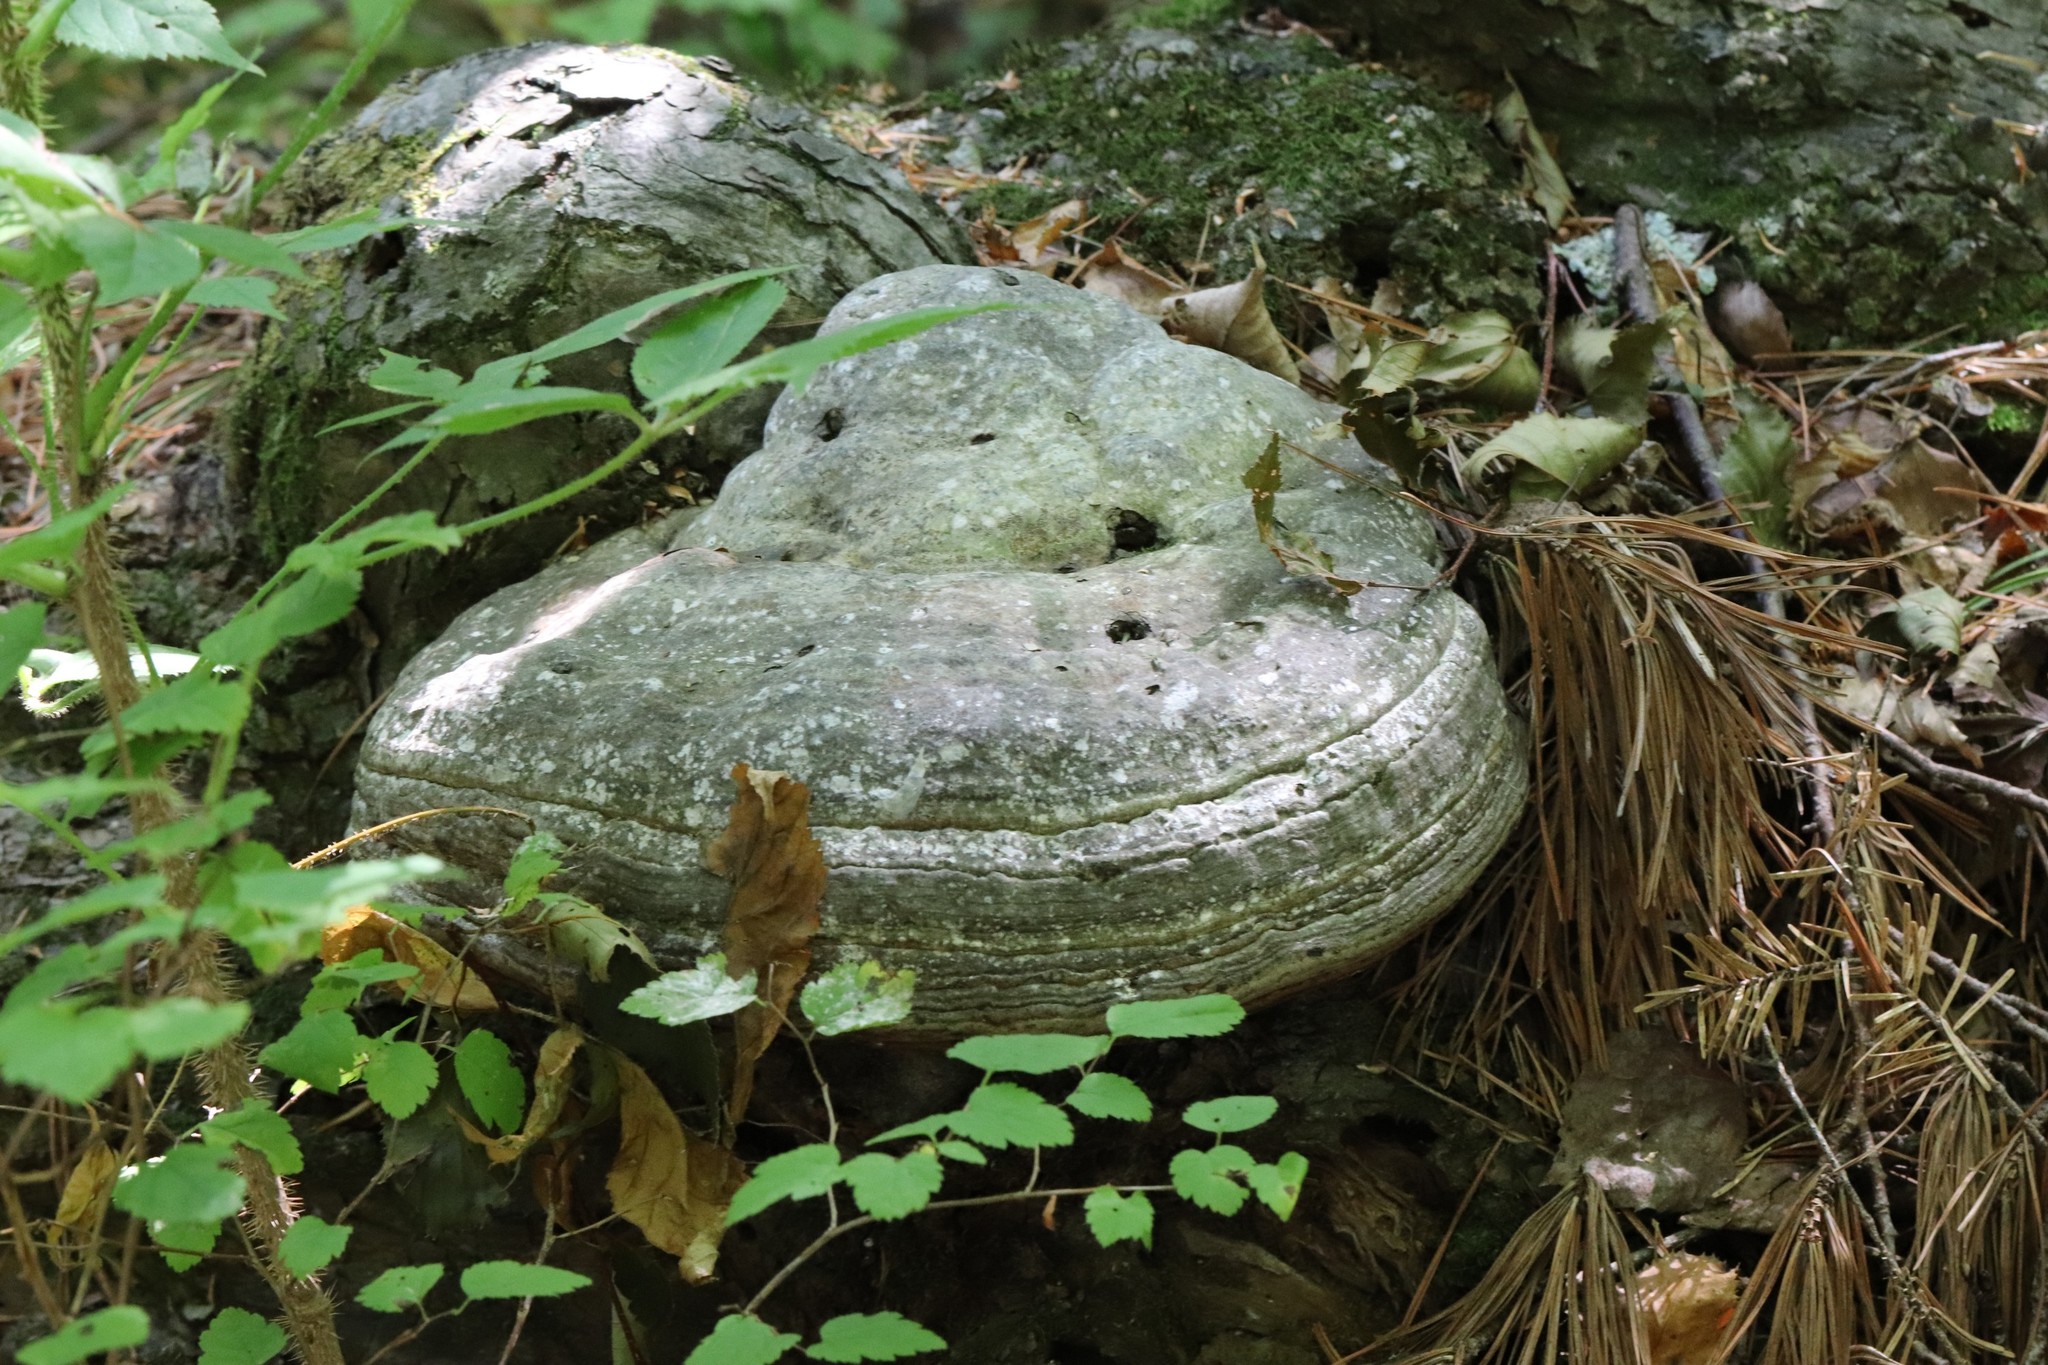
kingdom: Fungi
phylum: Basidiomycota
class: Agaricomycetes
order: Polyporales
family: Polyporaceae
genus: Fomes
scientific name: Fomes fomentarius
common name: Hoof fungus
